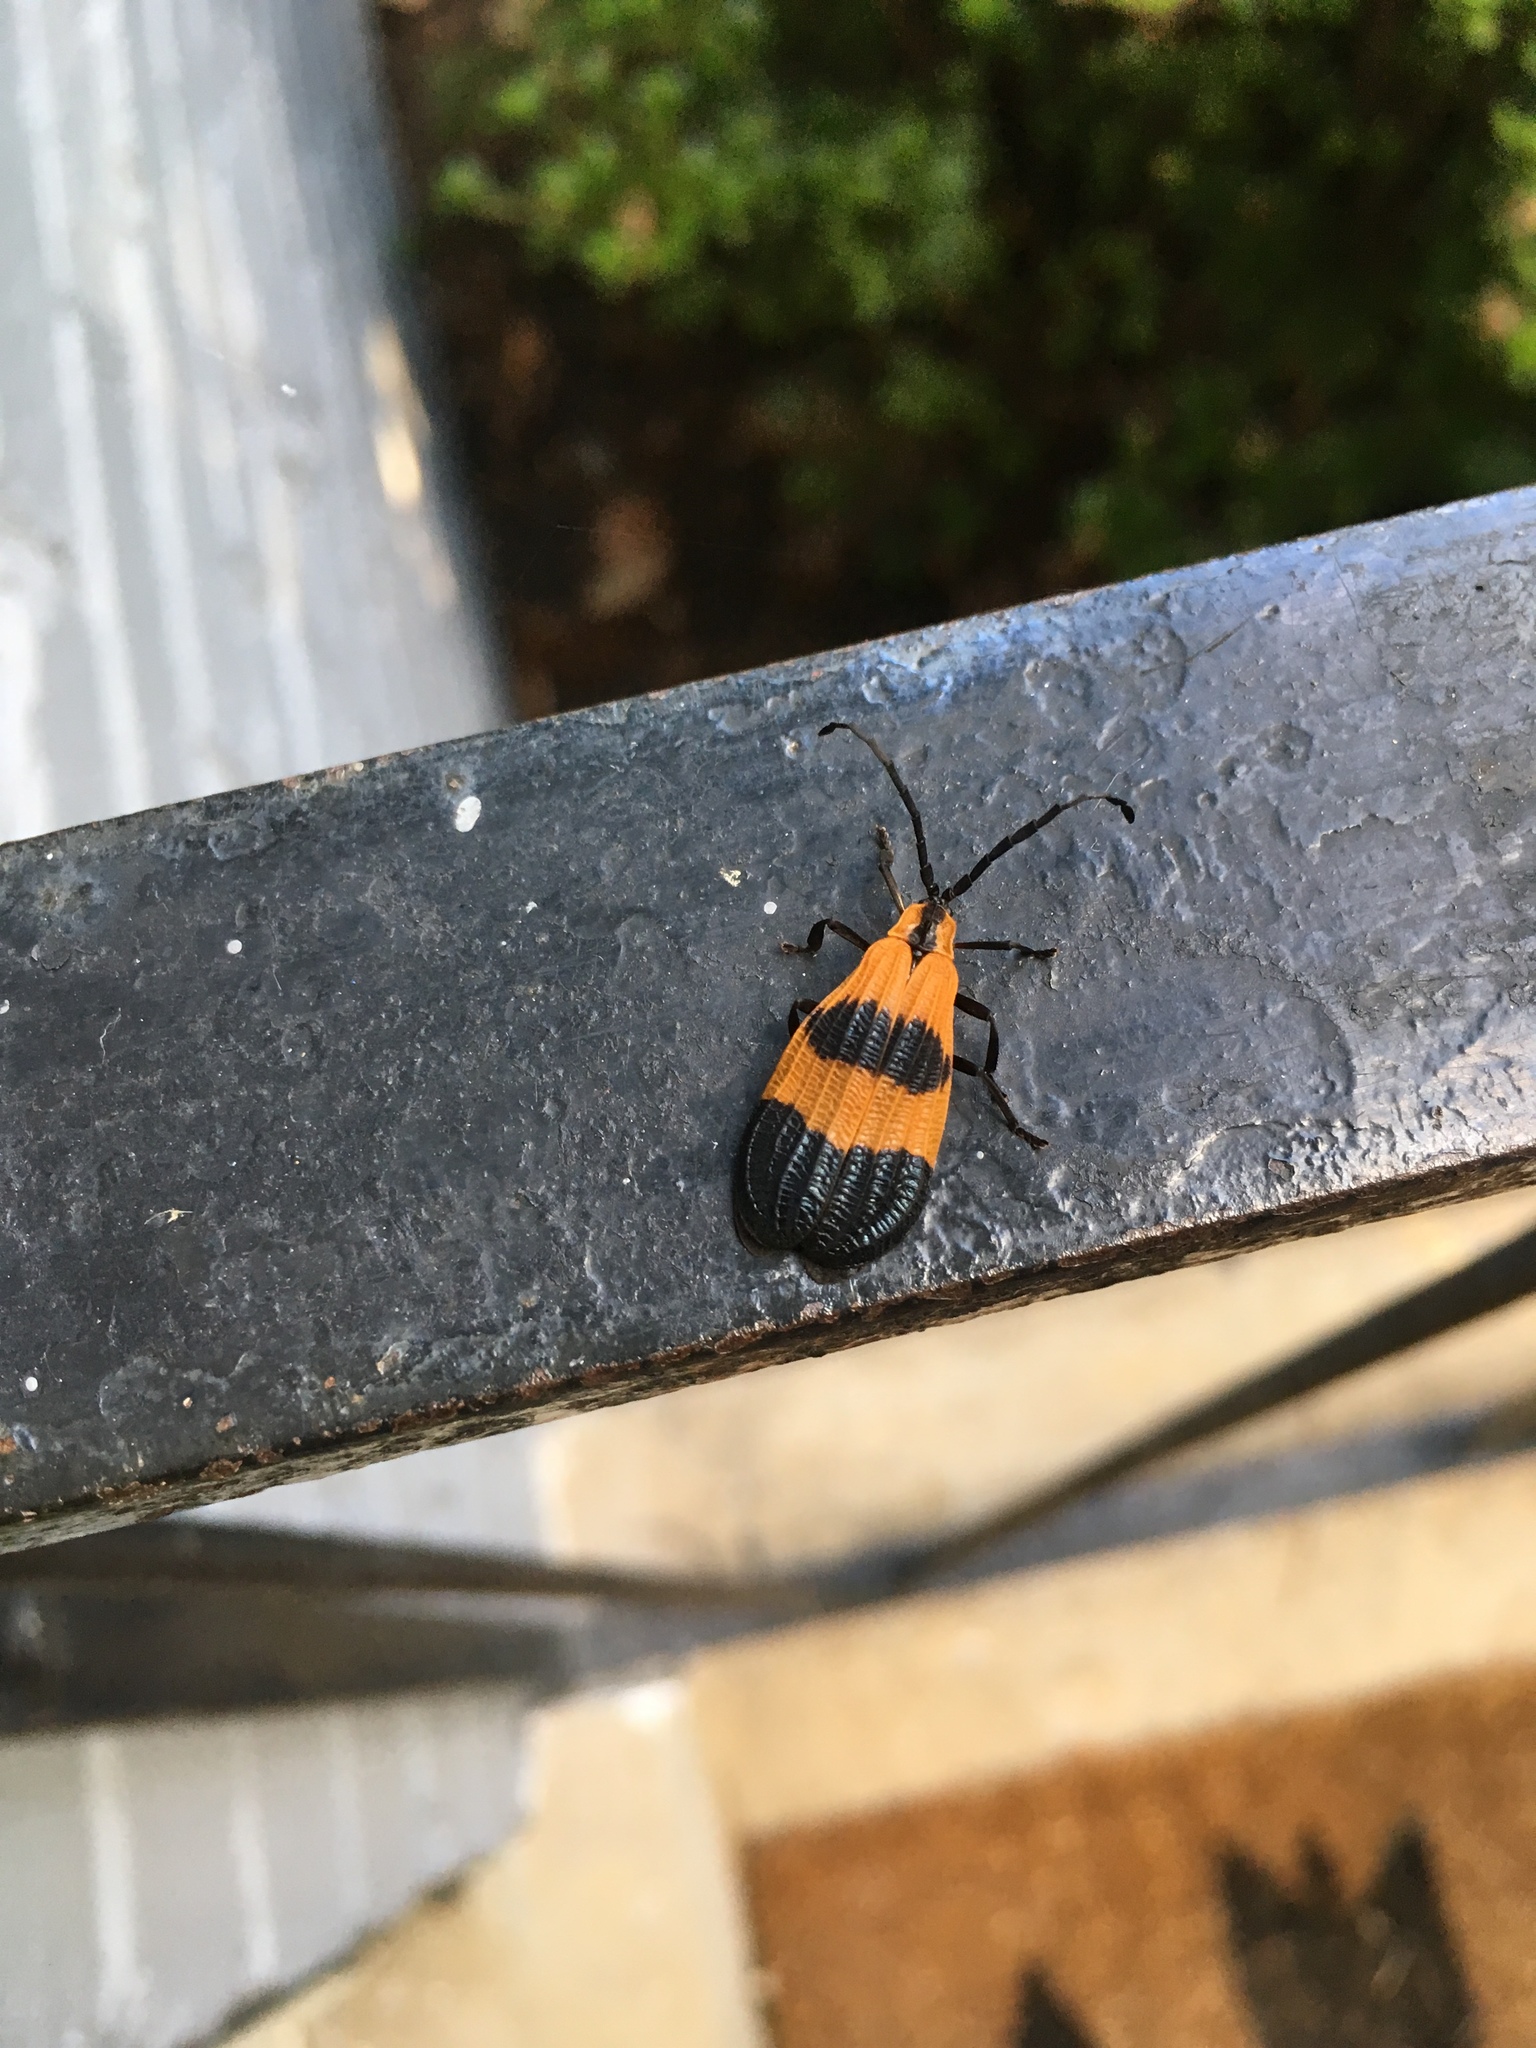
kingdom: Animalia
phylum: Arthropoda
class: Insecta
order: Coleoptera
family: Lycidae
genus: Calopteron
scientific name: Calopteron terminale
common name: End band net-winged beetle
